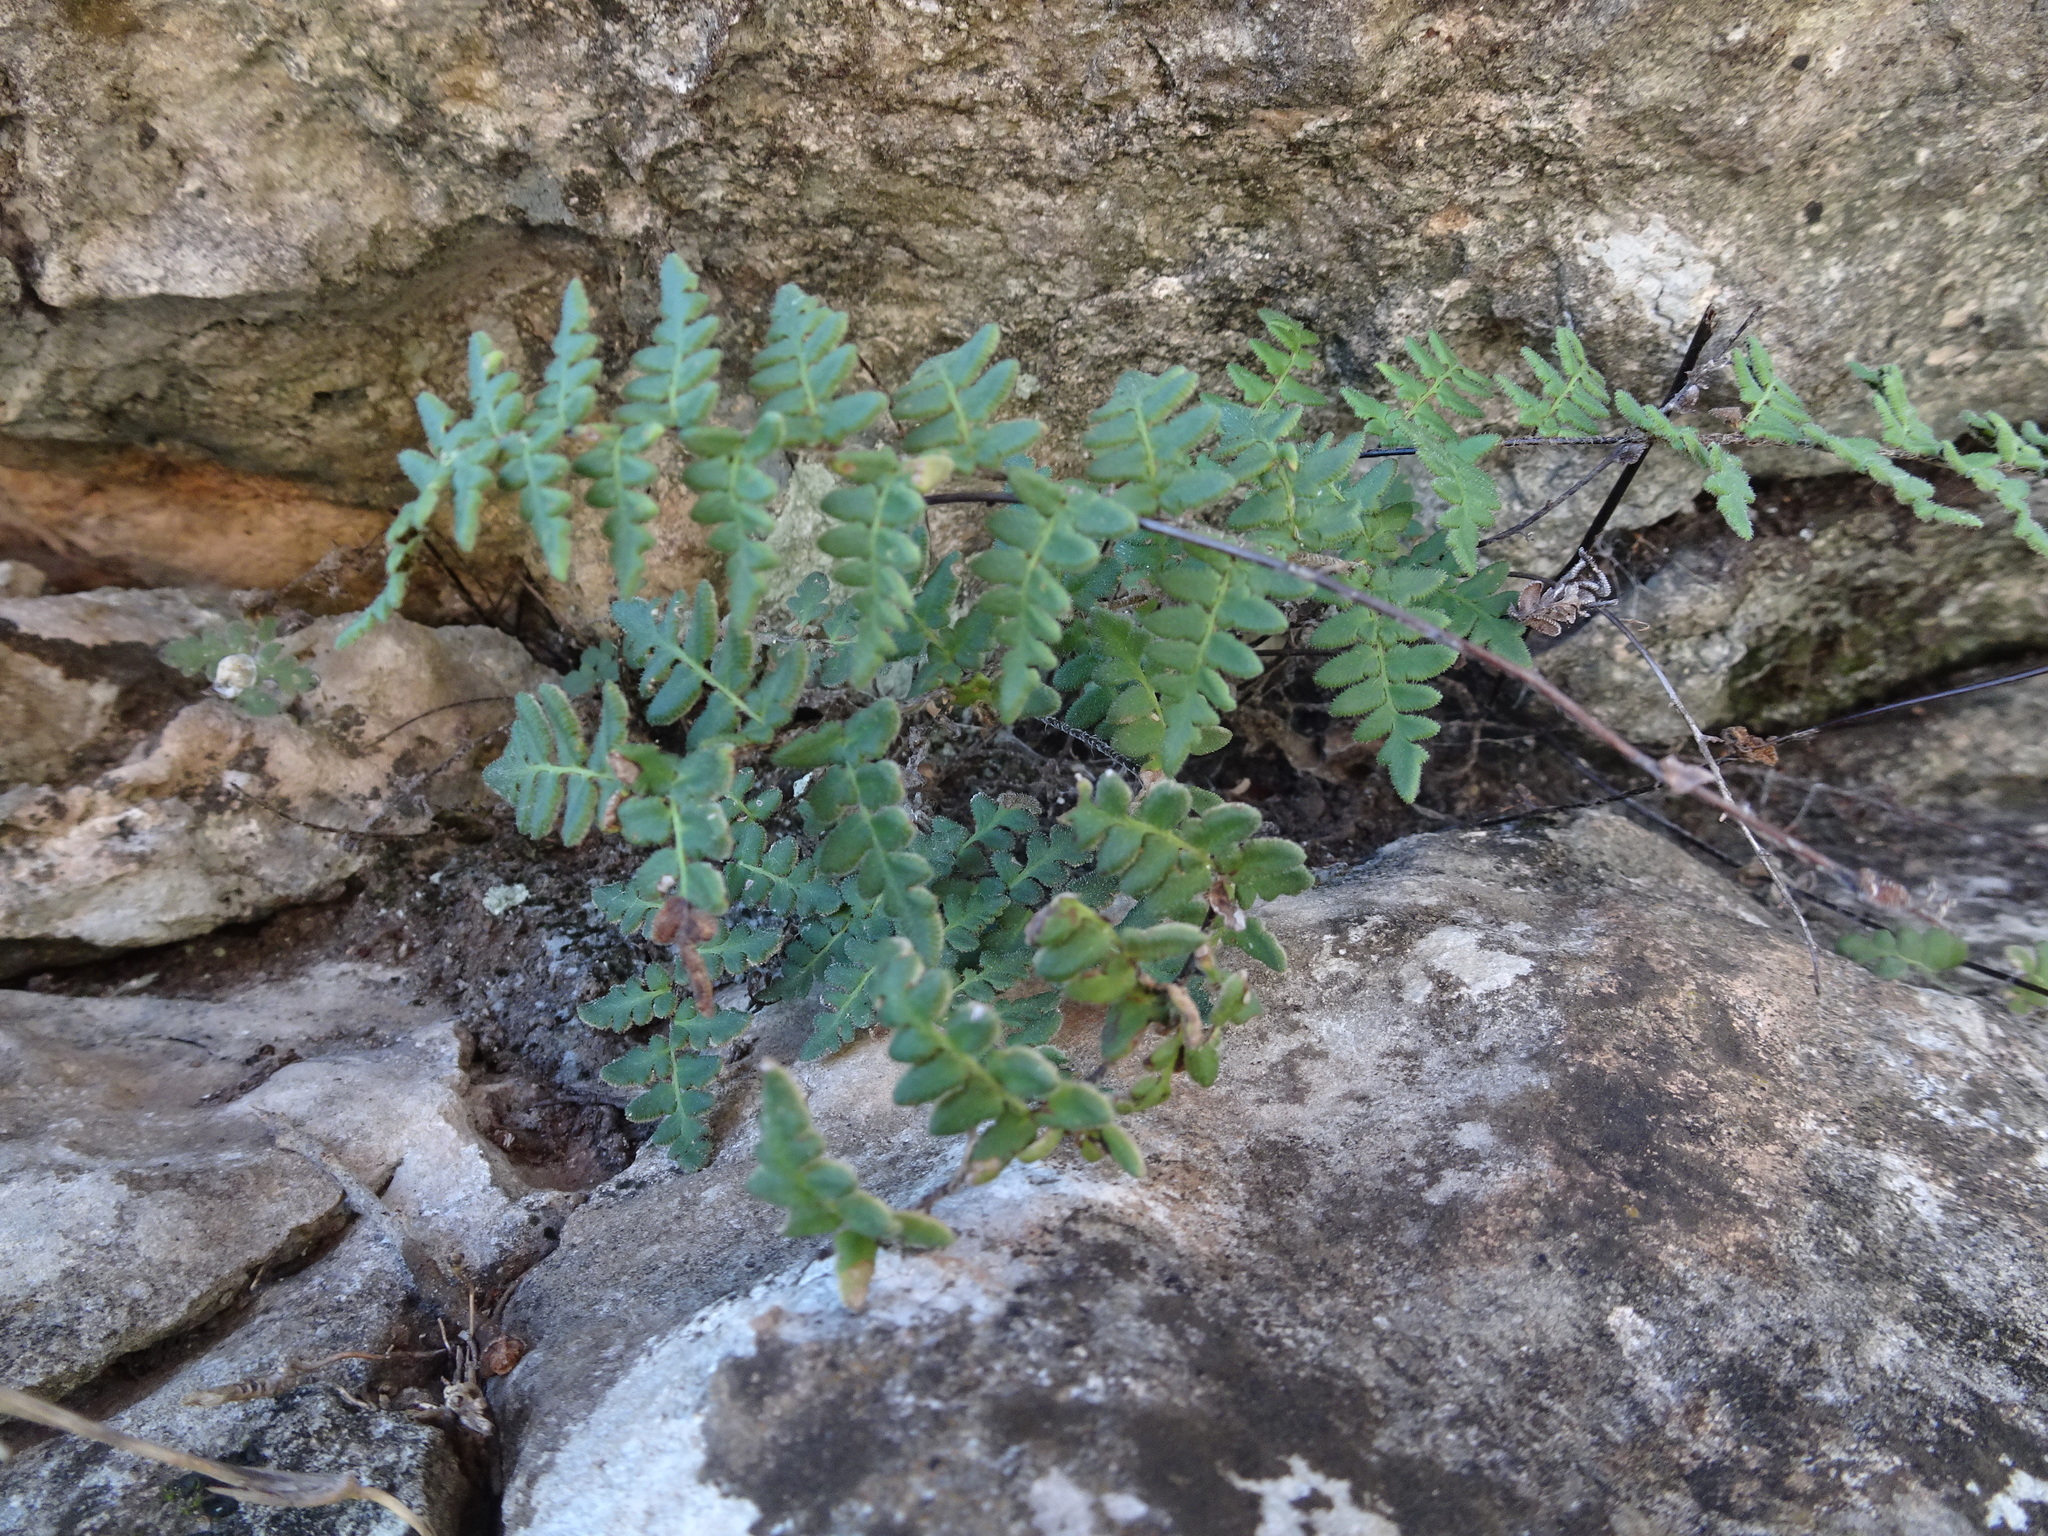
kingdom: Plantae
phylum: Tracheophyta
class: Polypodiopsida
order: Polypodiales
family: Pteridaceae
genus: Myriopteris
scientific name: Myriopteris scabra
